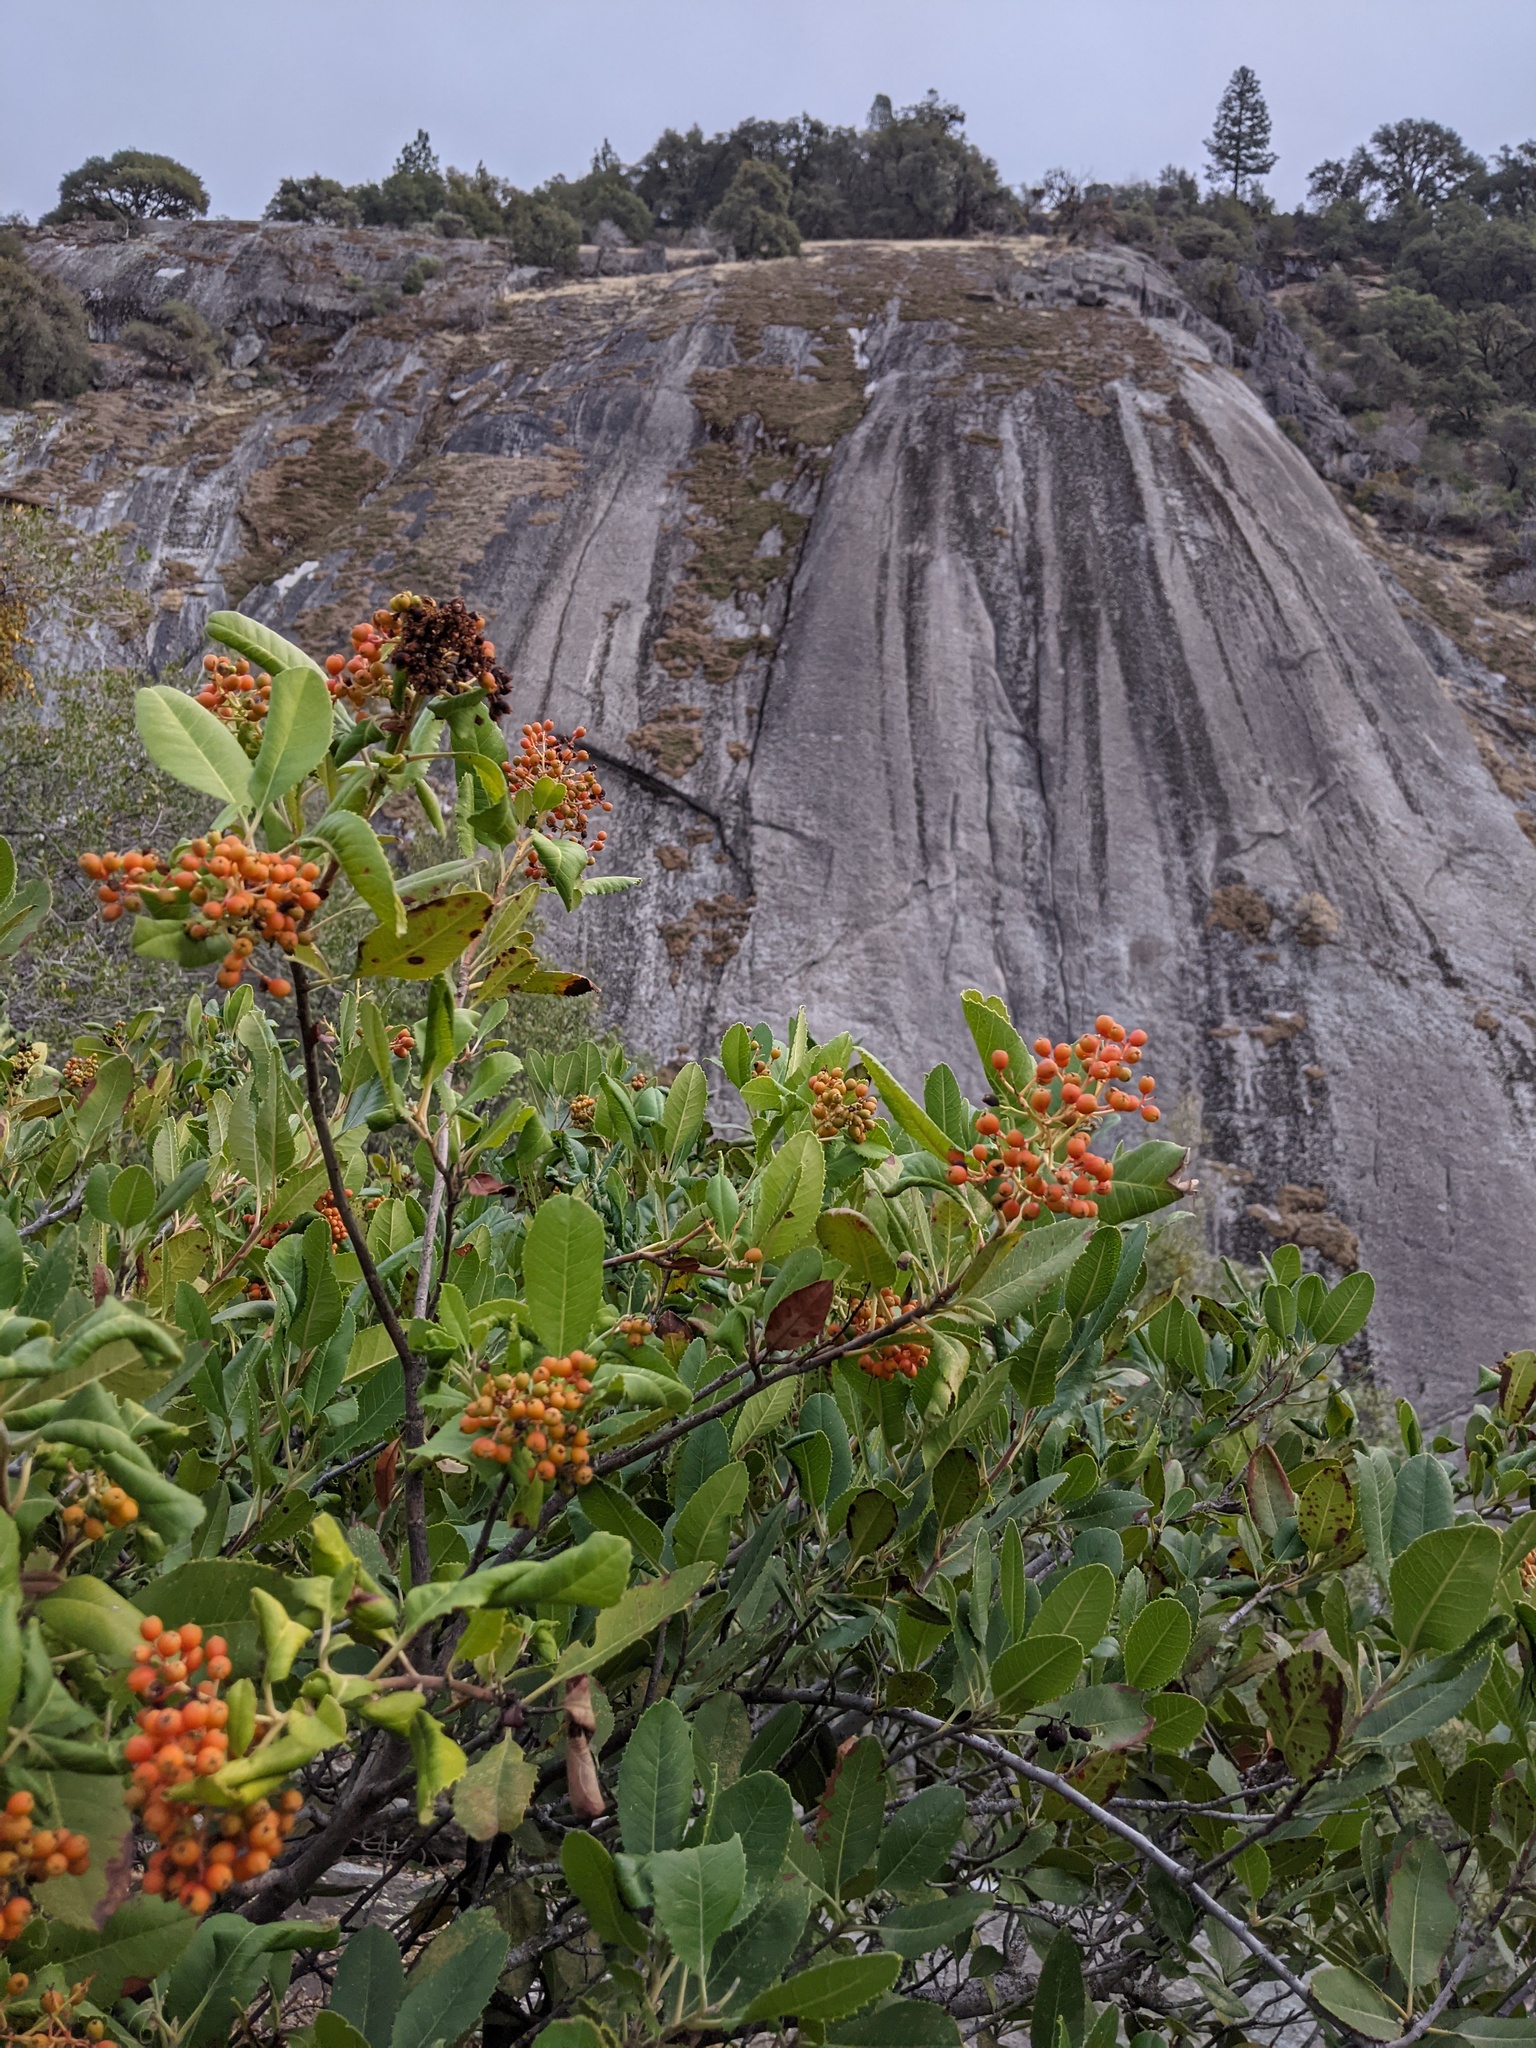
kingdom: Plantae
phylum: Tracheophyta
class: Magnoliopsida
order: Rosales
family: Rosaceae
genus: Heteromeles
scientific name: Heteromeles arbutifolia
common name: California-holly
